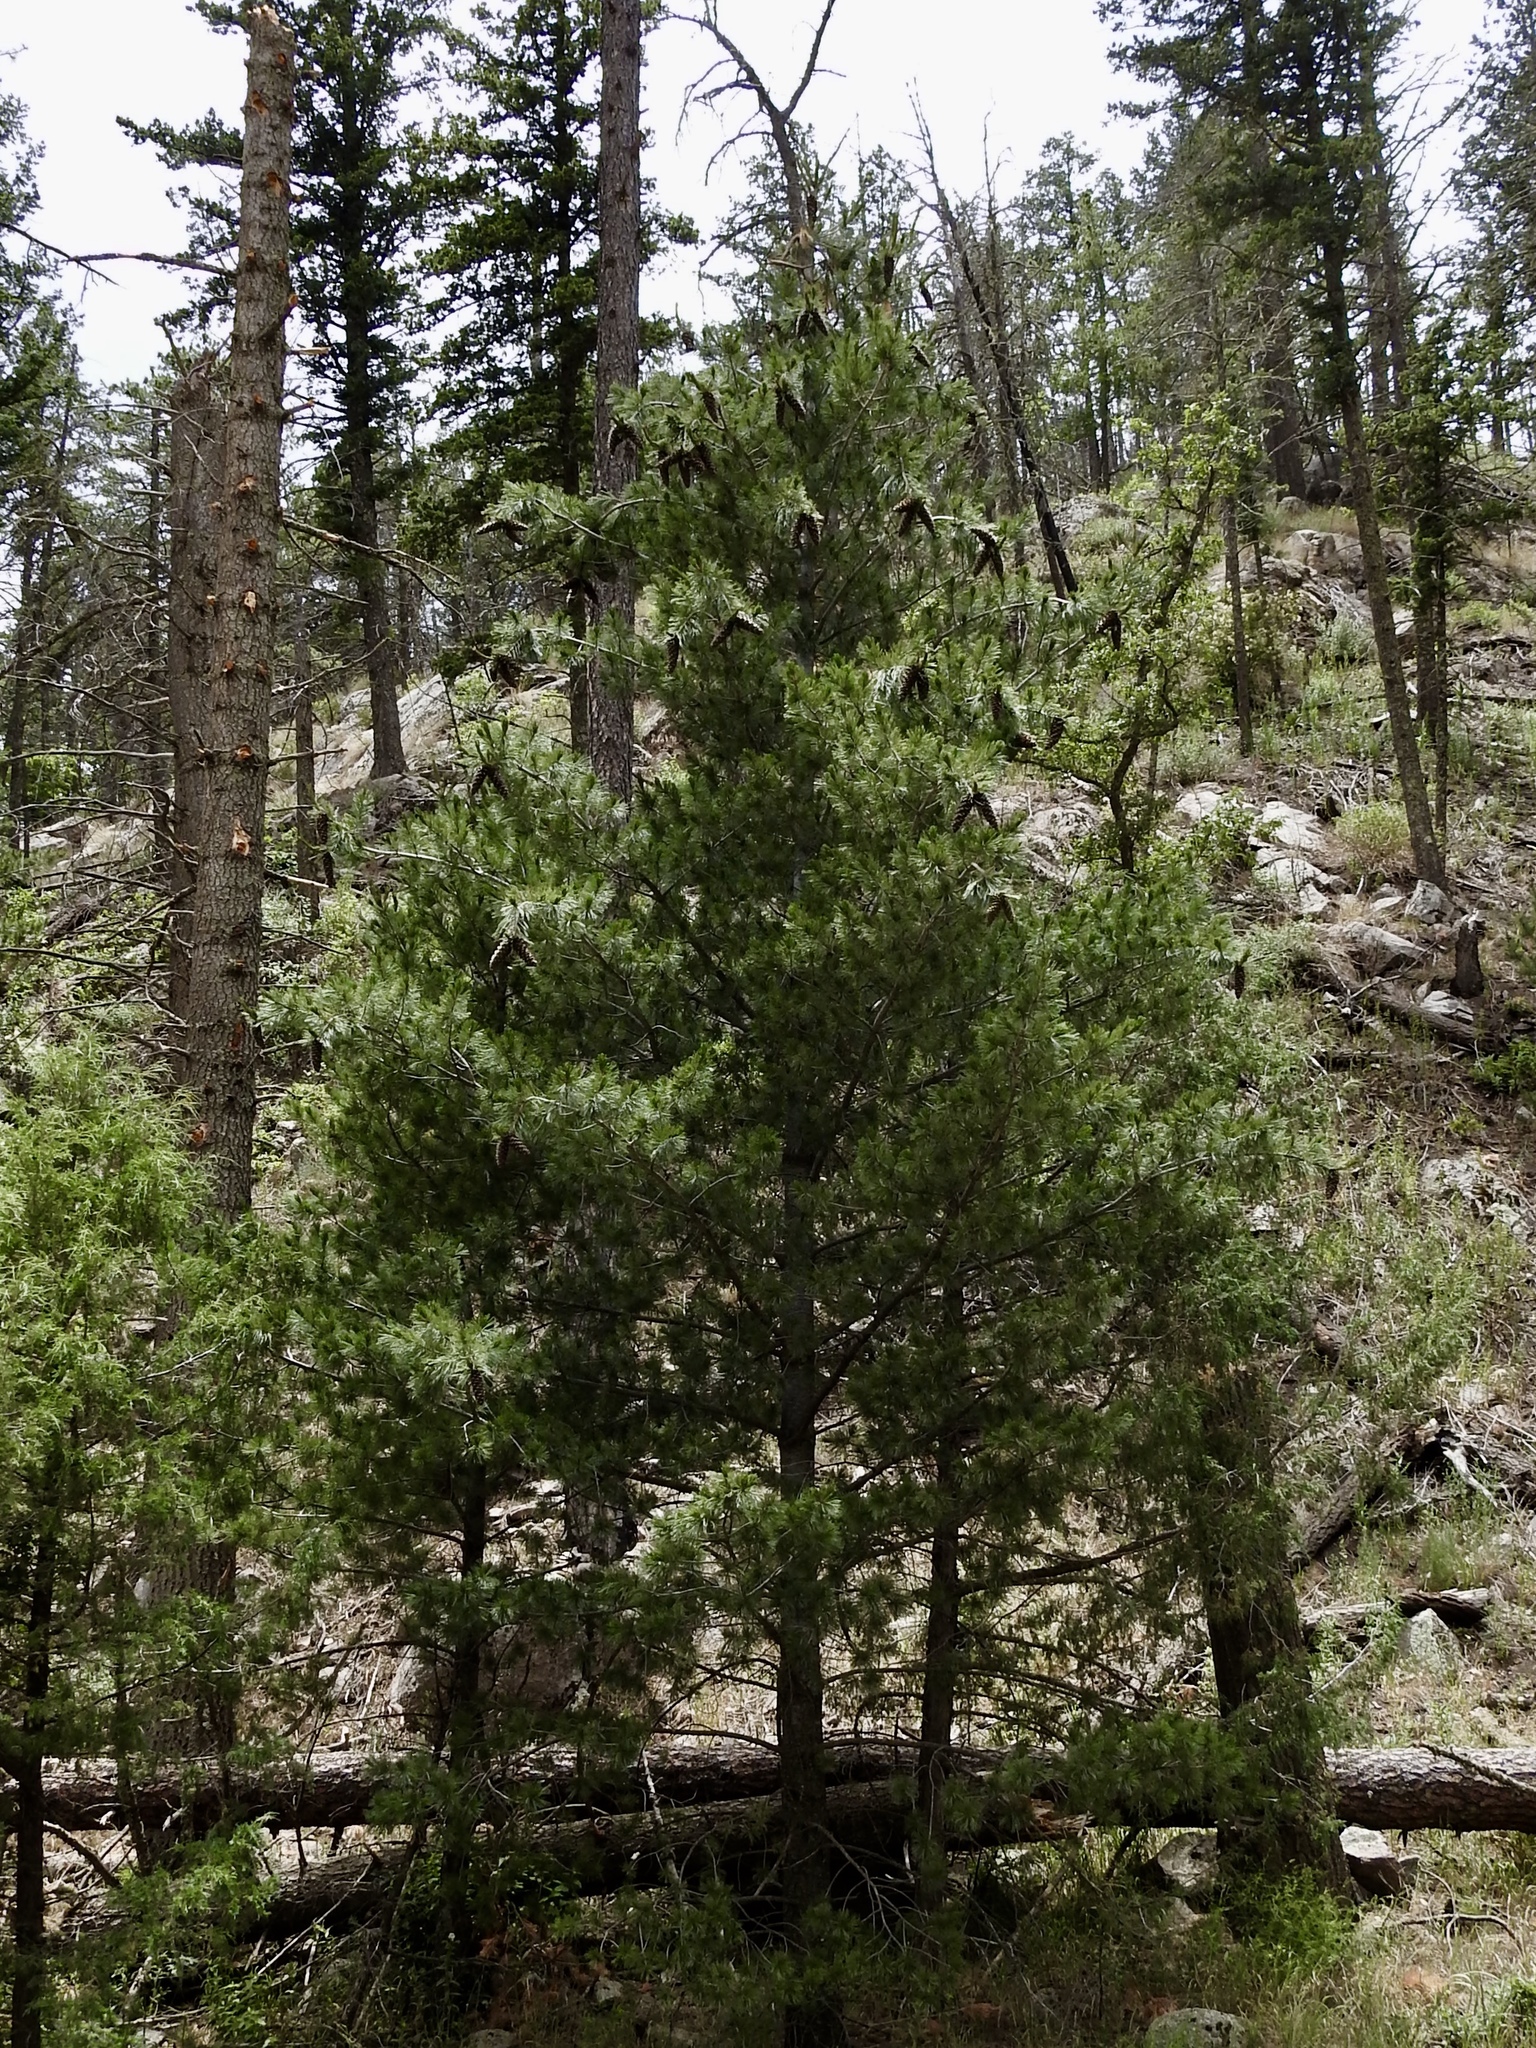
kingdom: Plantae
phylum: Tracheophyta
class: Pinopsida
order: Pinales
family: Pinaceae
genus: Pinus
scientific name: Pinus strobiformis
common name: Southwestern white pine
